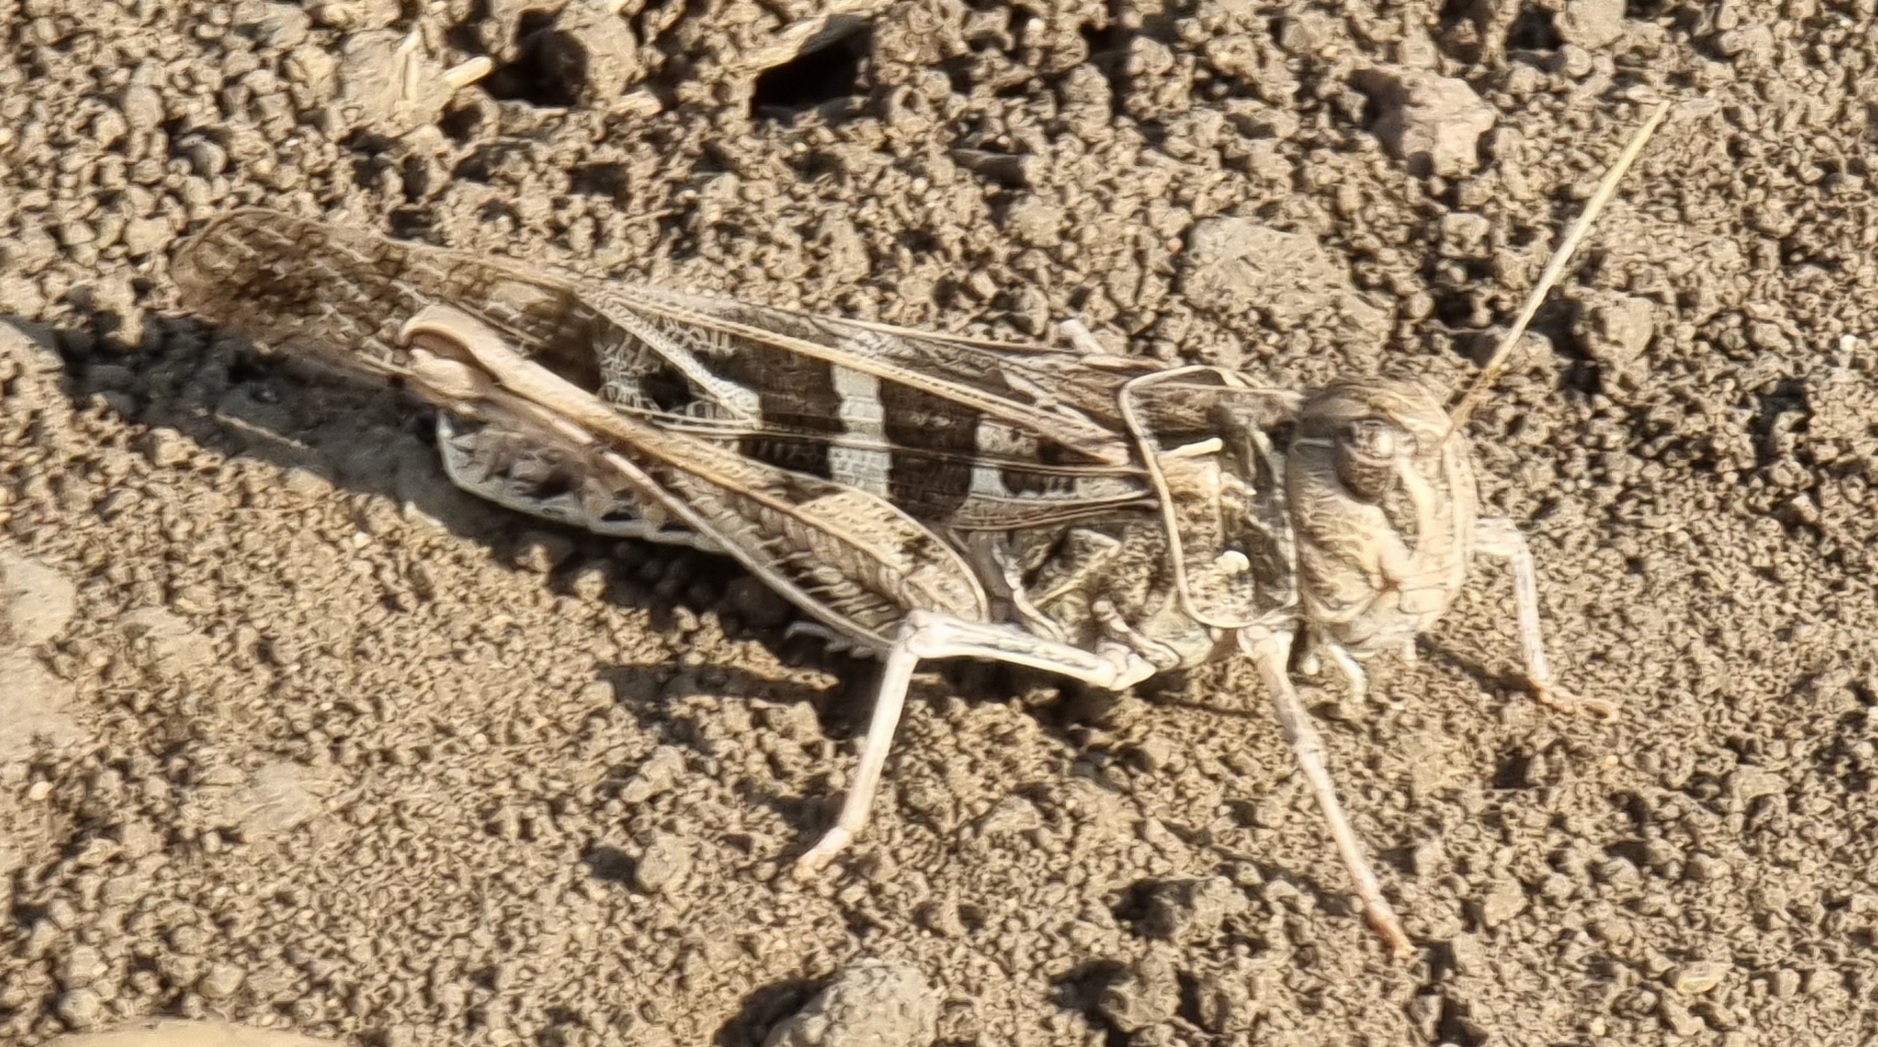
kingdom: Animalia
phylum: Arthropoda
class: Insecta
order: Orthoptera
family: Acrididae
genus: Oedaleus
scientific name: Oedaleus decorus
